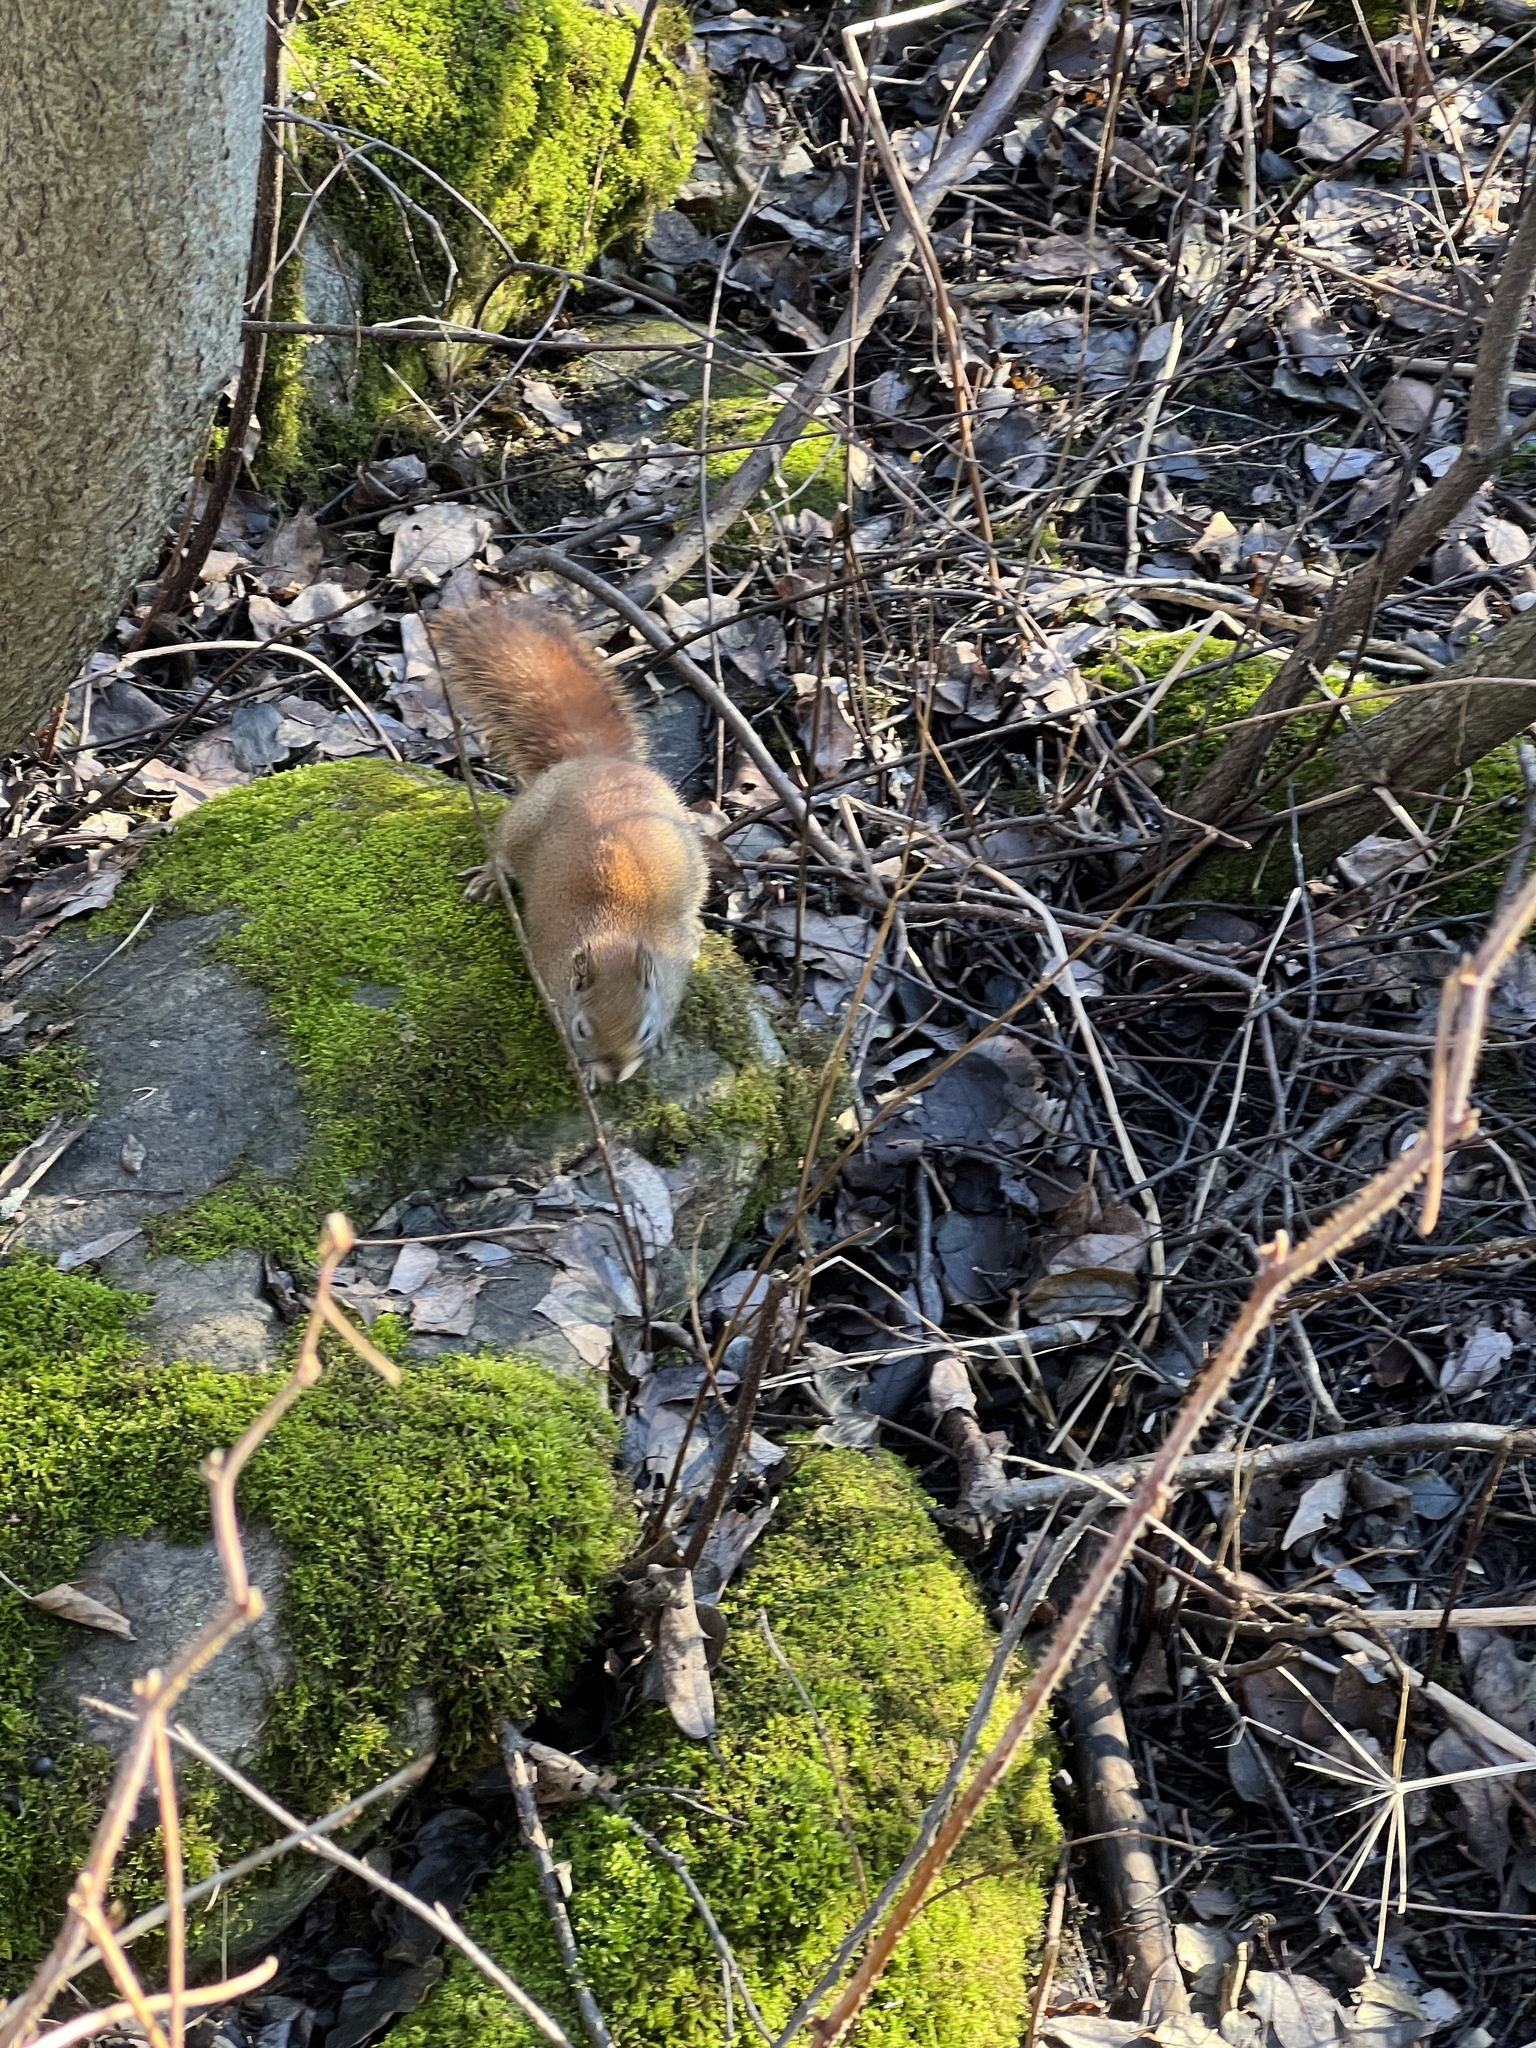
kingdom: Animalia
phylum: Chordata
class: Mammalia
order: Rodentia
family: Sciuridae
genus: Tamiasciurus
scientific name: Tamiasciurus hudsonicus
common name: Red squirrel
